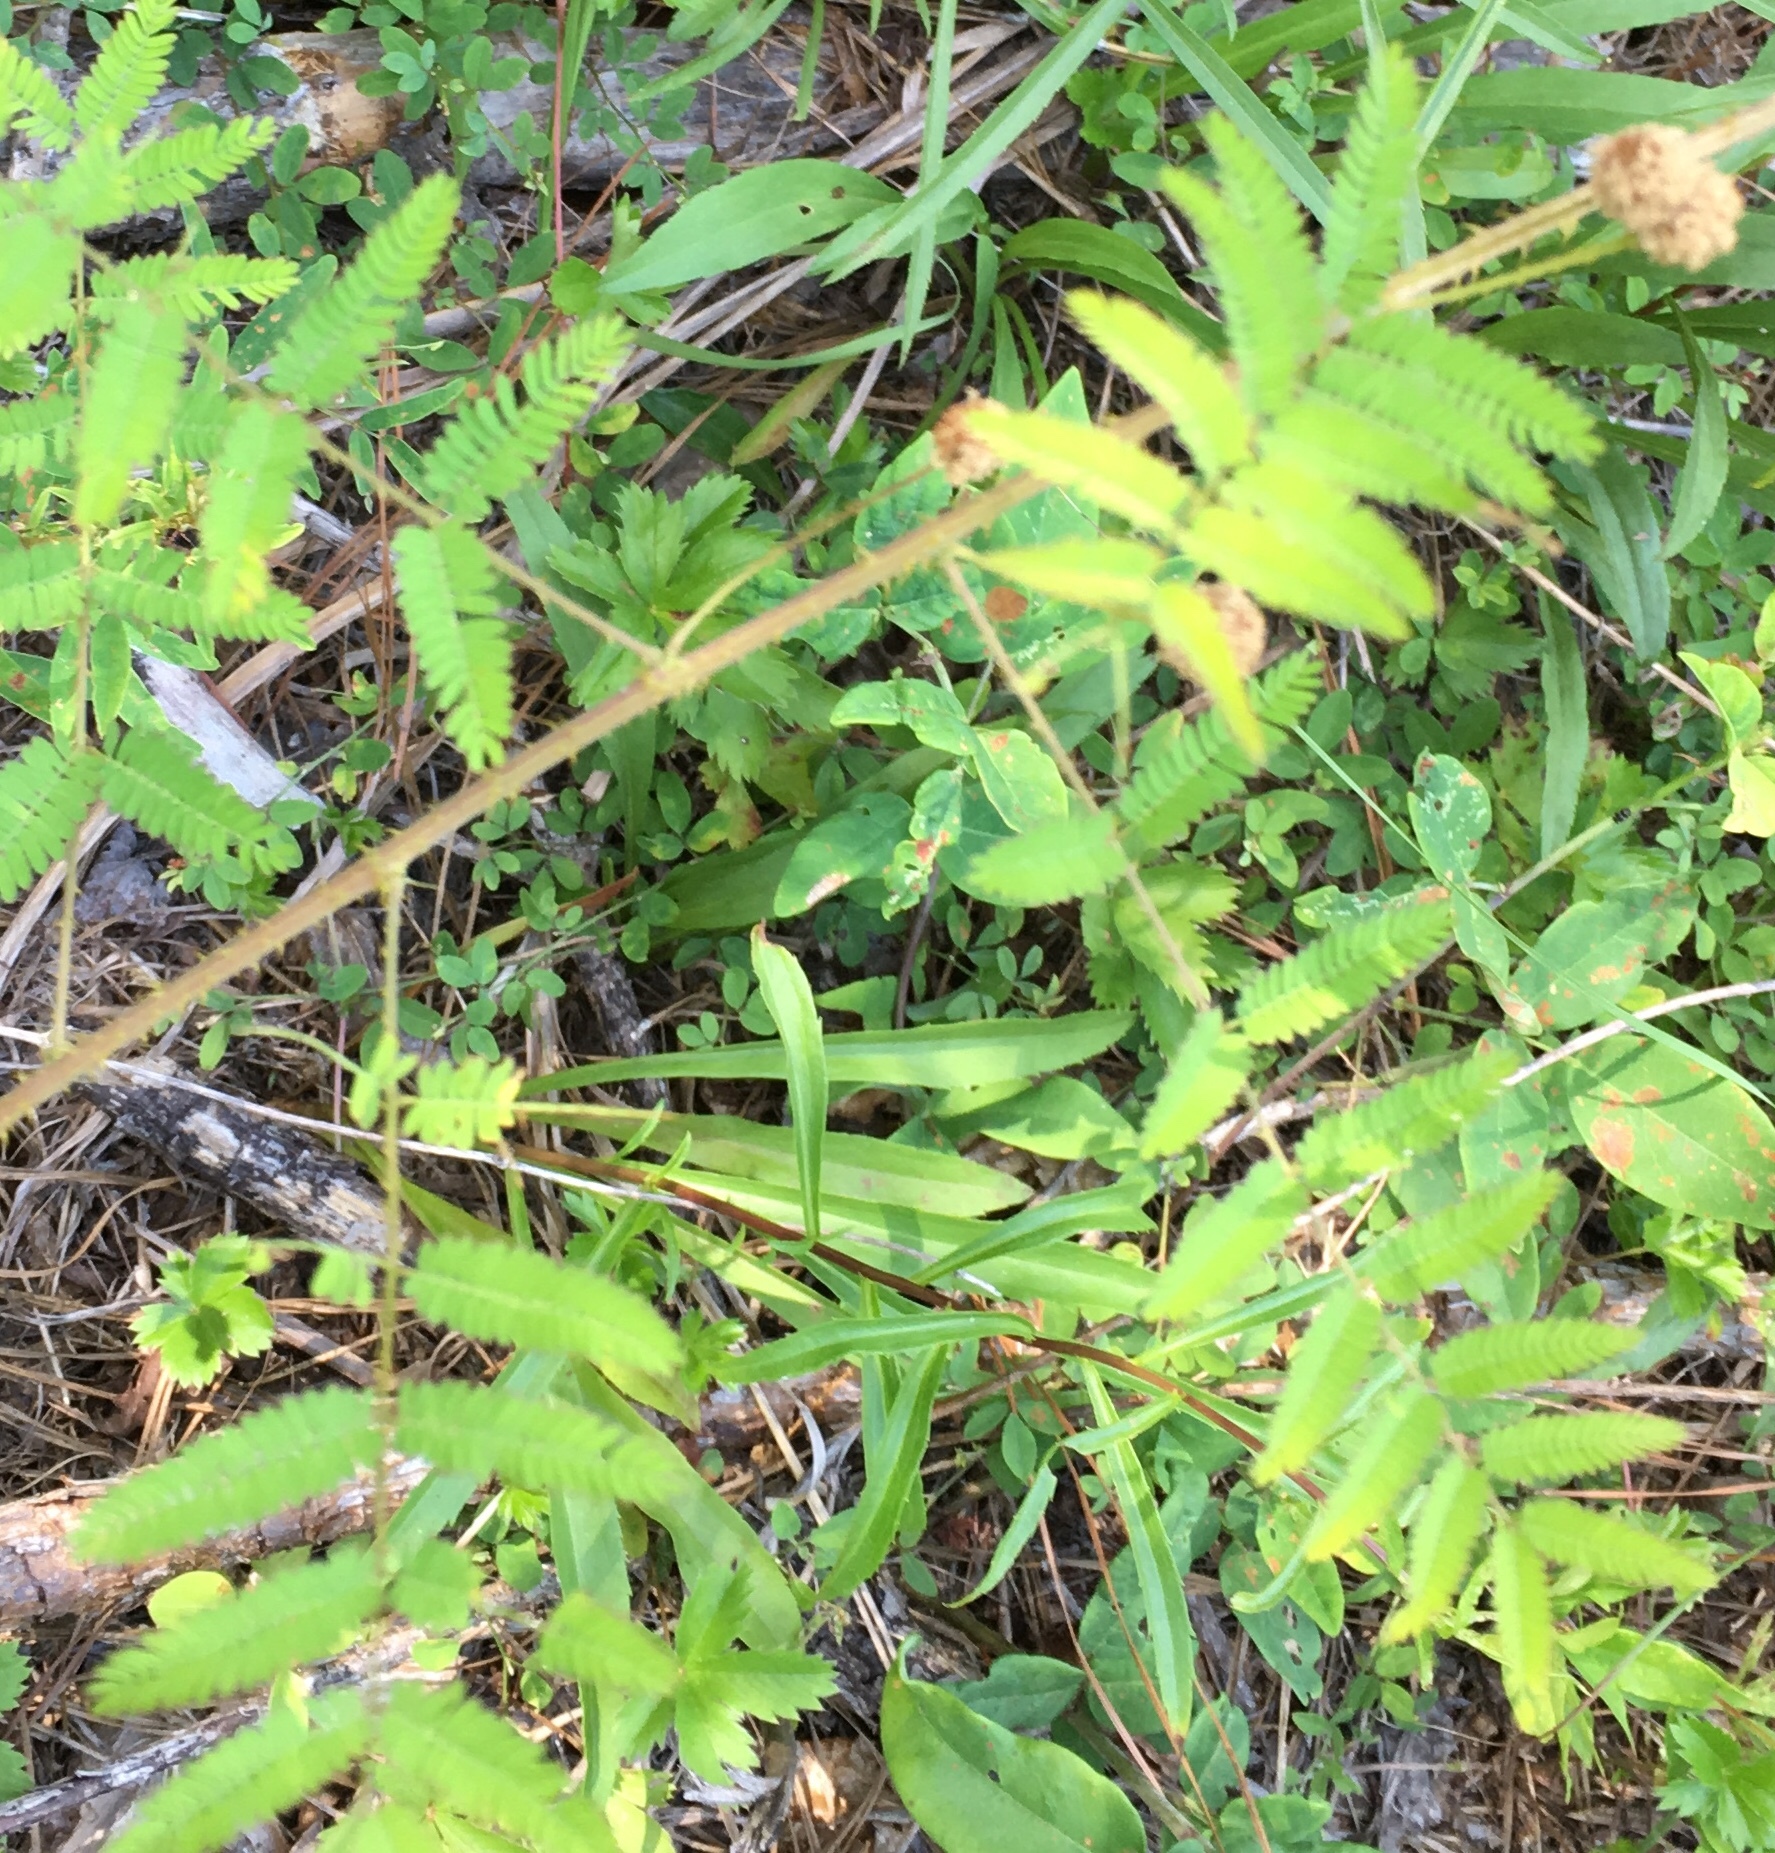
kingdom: Plantae
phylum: Tracheophyta
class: Magnoliopsida
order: Fabales
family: Fabaceae
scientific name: Fabaceae
